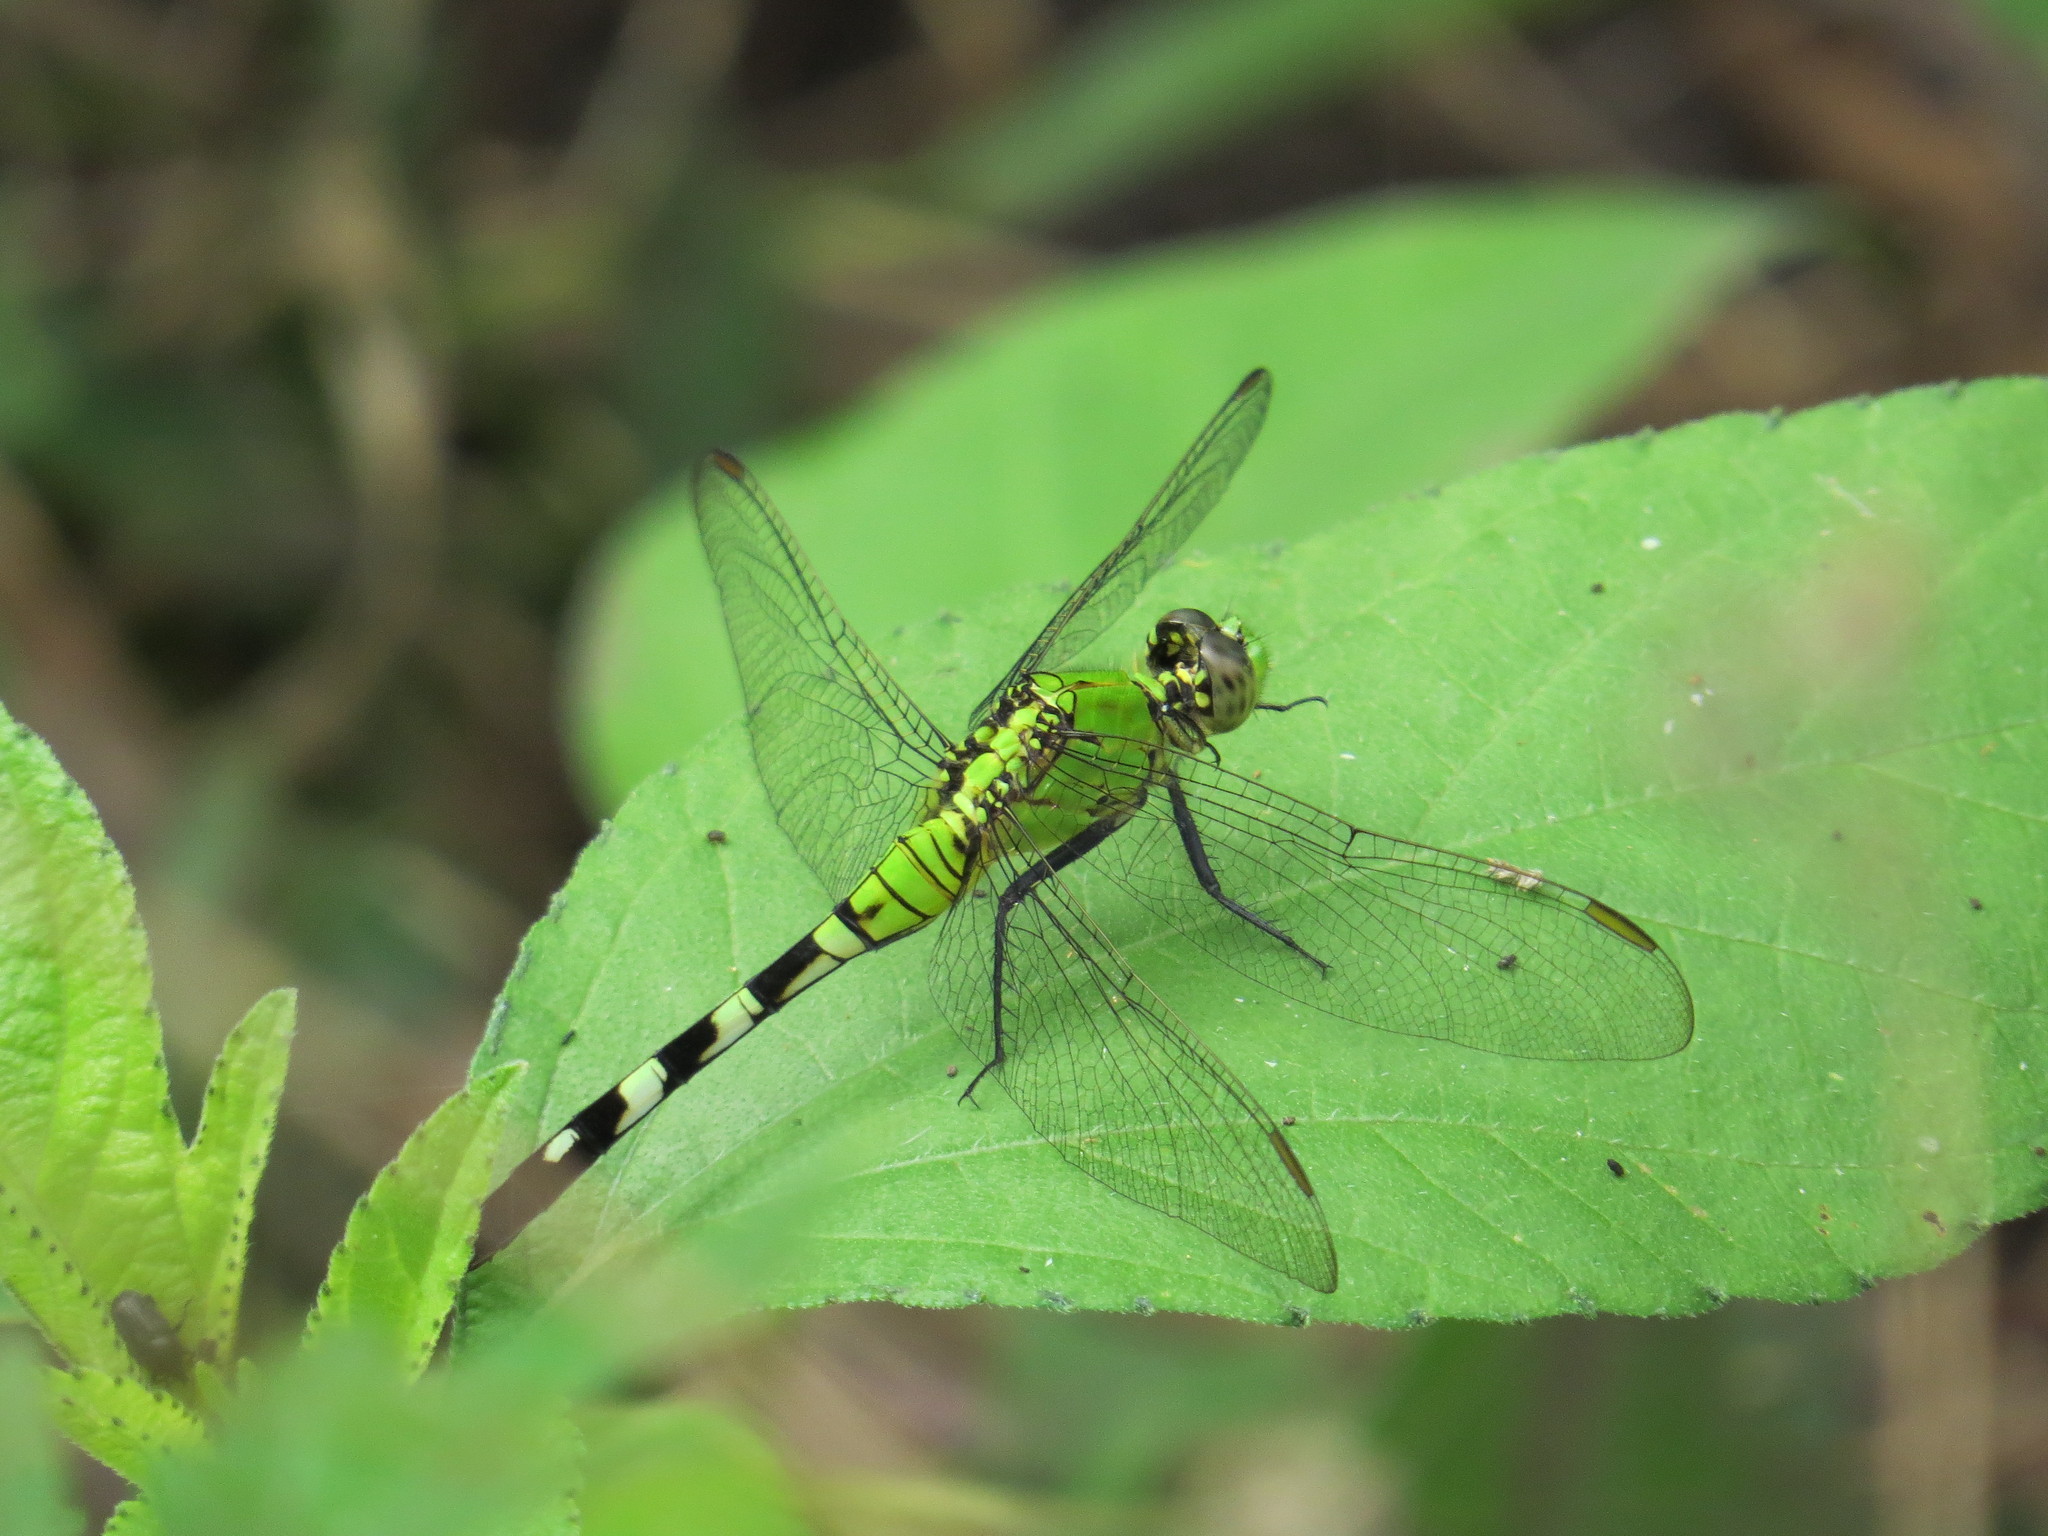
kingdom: Animalia
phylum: Arthropoda
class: Insecta
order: Odonata
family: Libellulidae
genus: Erythemis
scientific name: Erythemis simplicicollis
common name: Eastern pondhawk
